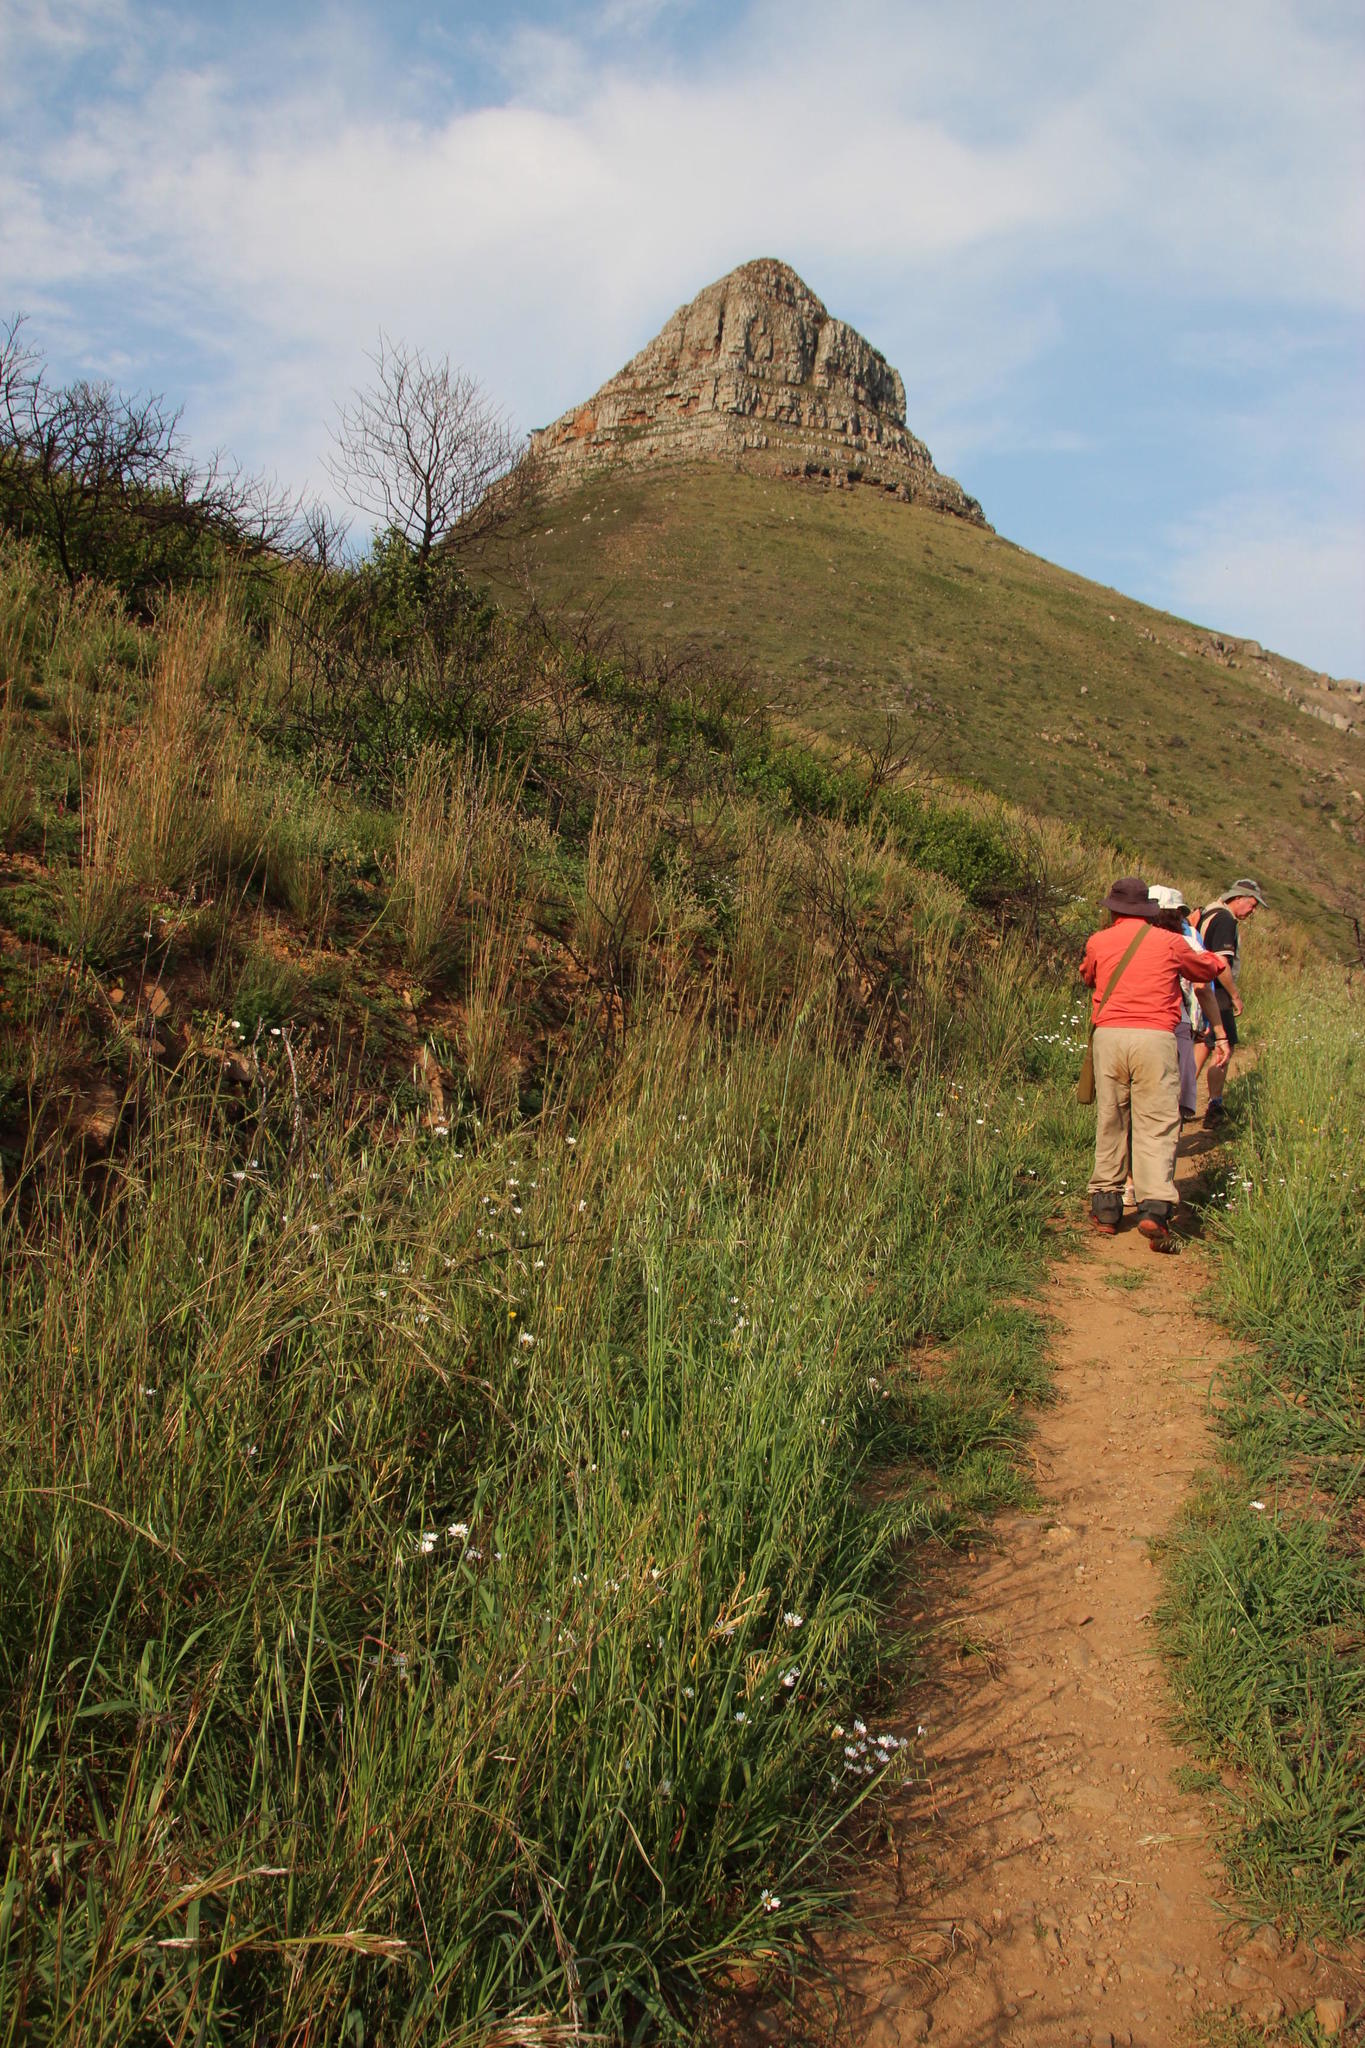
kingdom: Plantae
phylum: Tracheophyta
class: Liliopsida
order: Poales
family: Poaceae
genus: Hyparrhenia
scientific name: Hyparrhenia hirta
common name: Thatching grass
